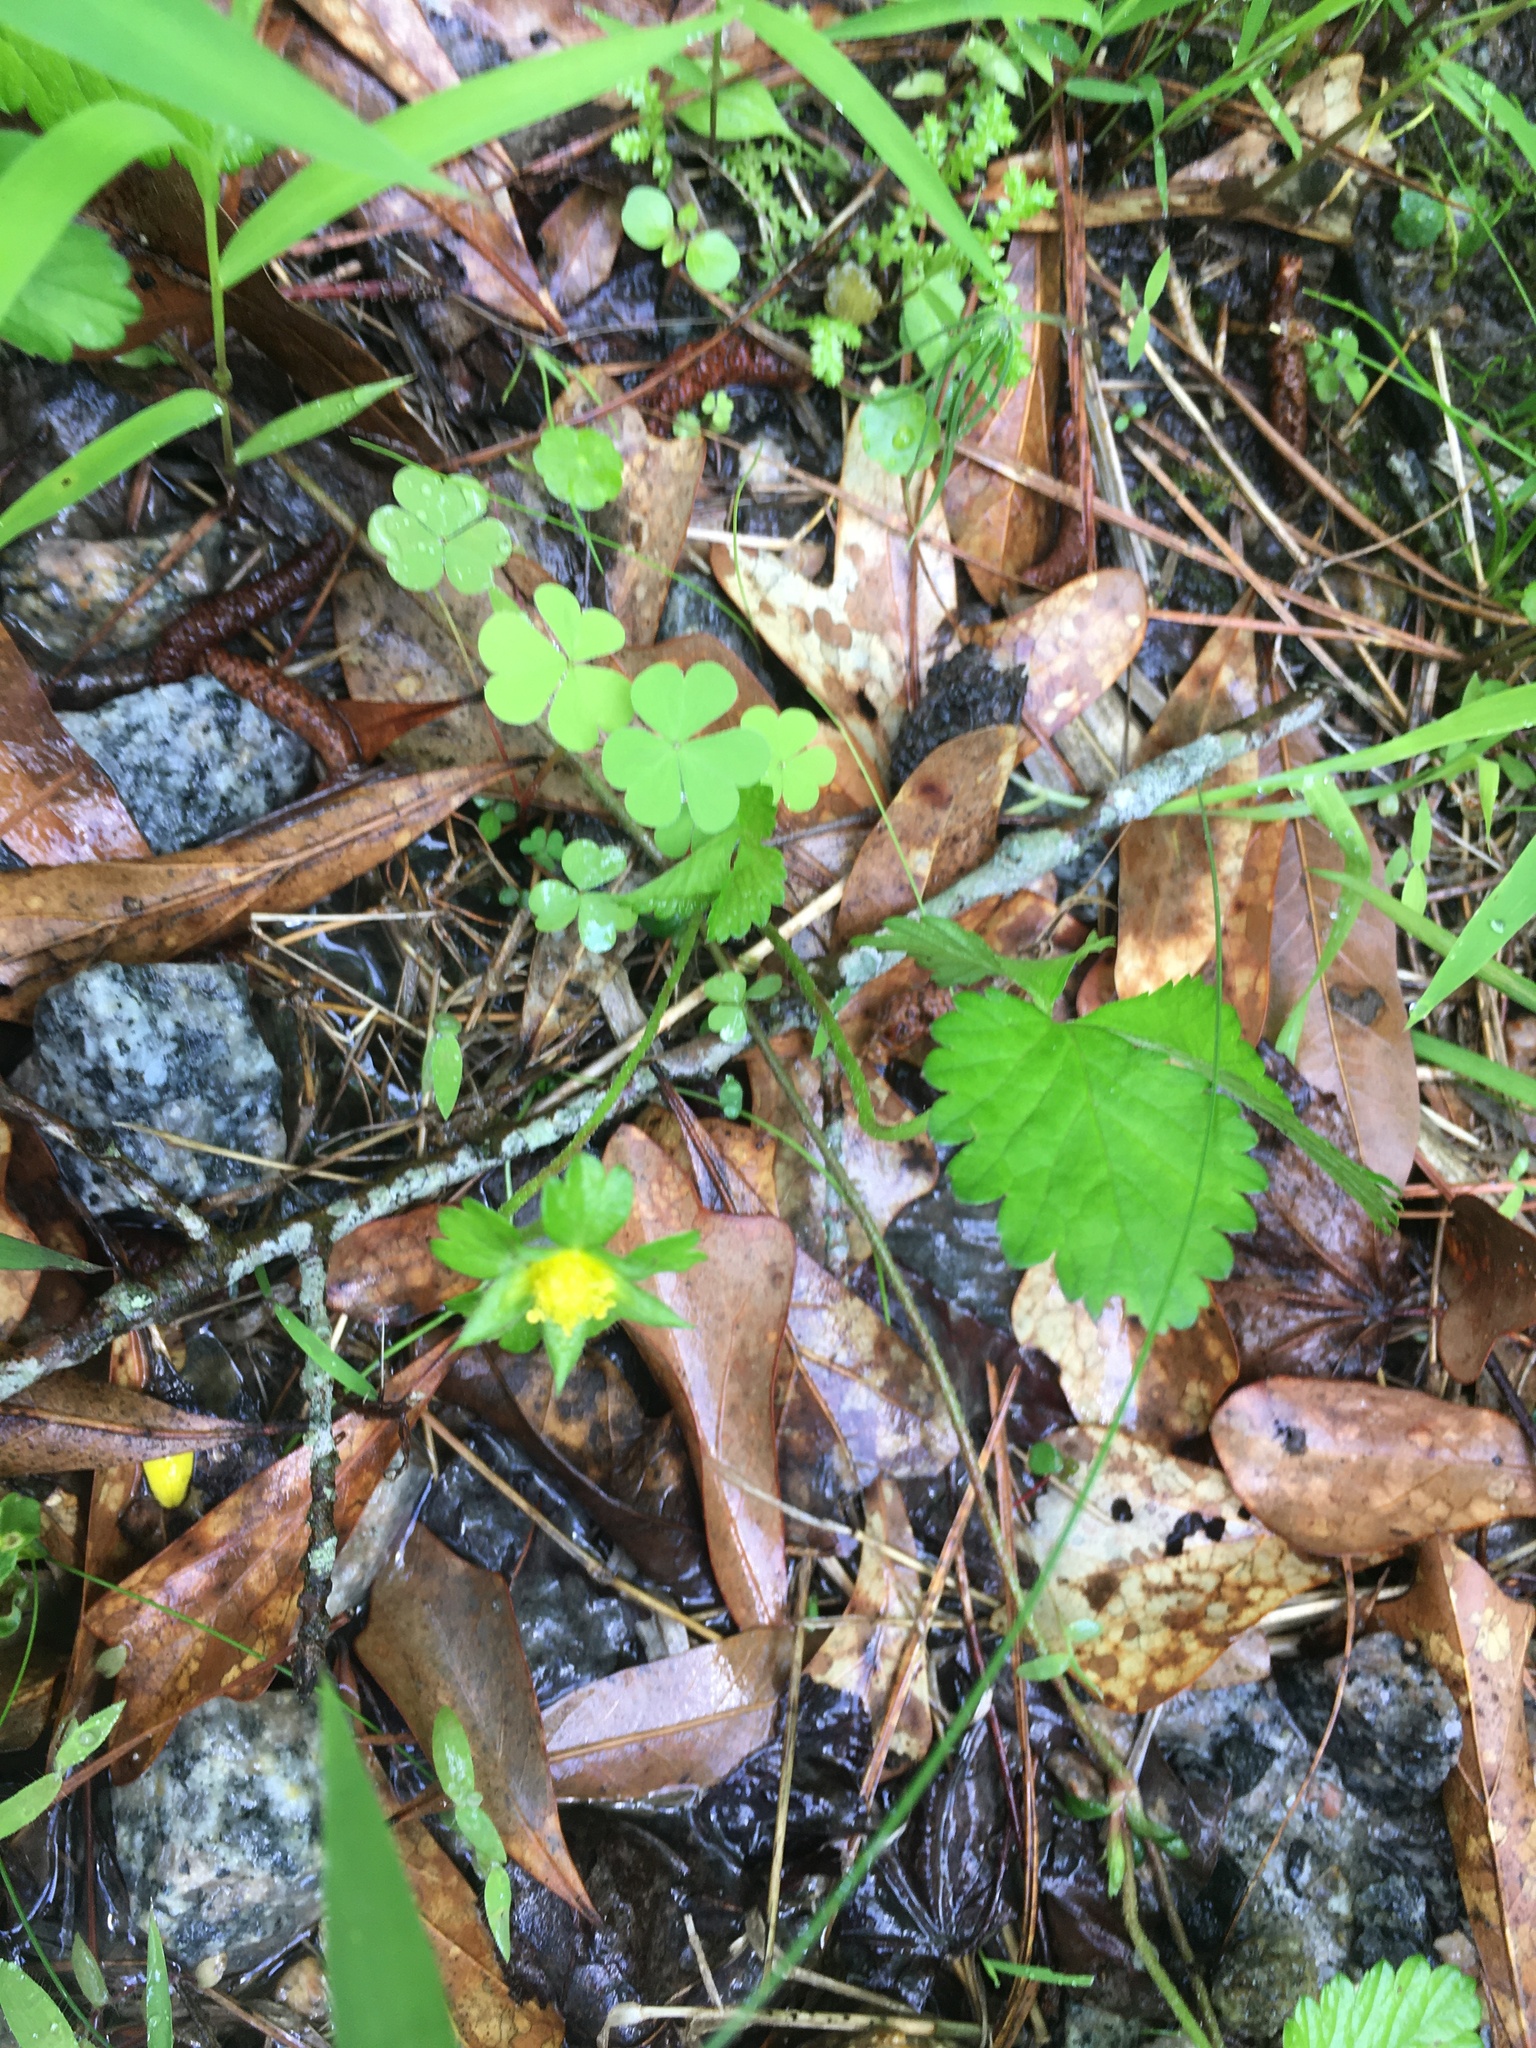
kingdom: Plantae
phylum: Tracheophyta
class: Magnoliopsida
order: Rosales
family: Rosaceae
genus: Potentilla
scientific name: Potentilla indica
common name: Yellow-flowered strawberry
